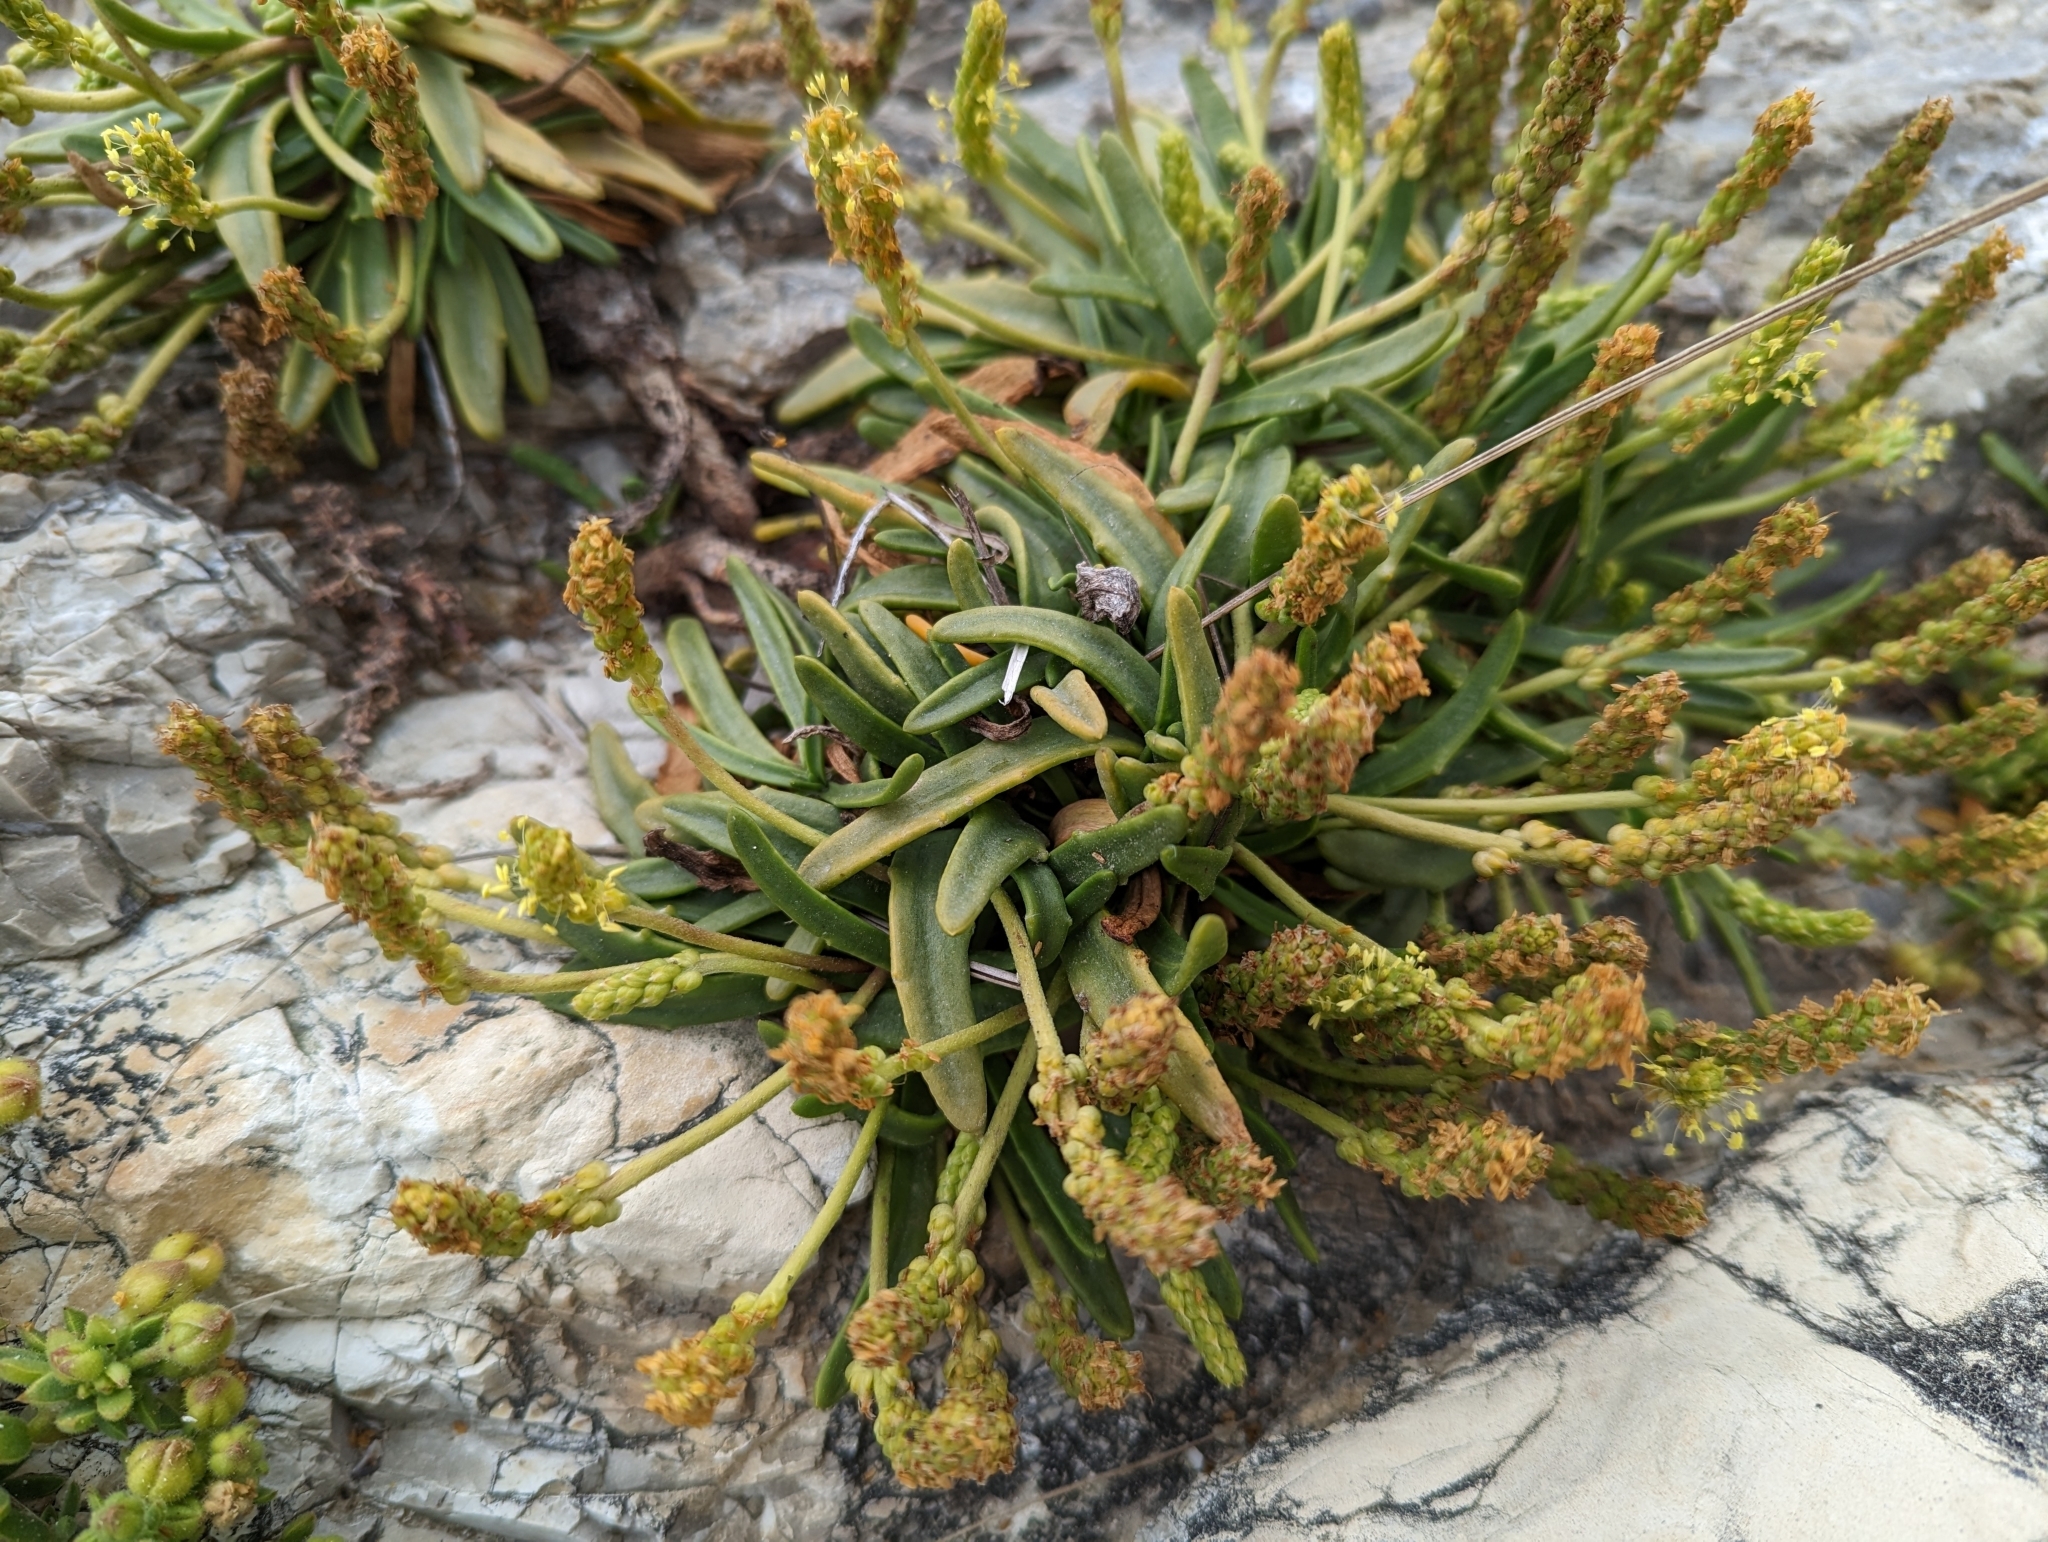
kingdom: Plantae
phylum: Tracheophyta
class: Magnoliopsida
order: Lamiales
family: Plantaginaceae
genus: Plantago
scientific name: Plantago maritima
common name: Sea plantain
